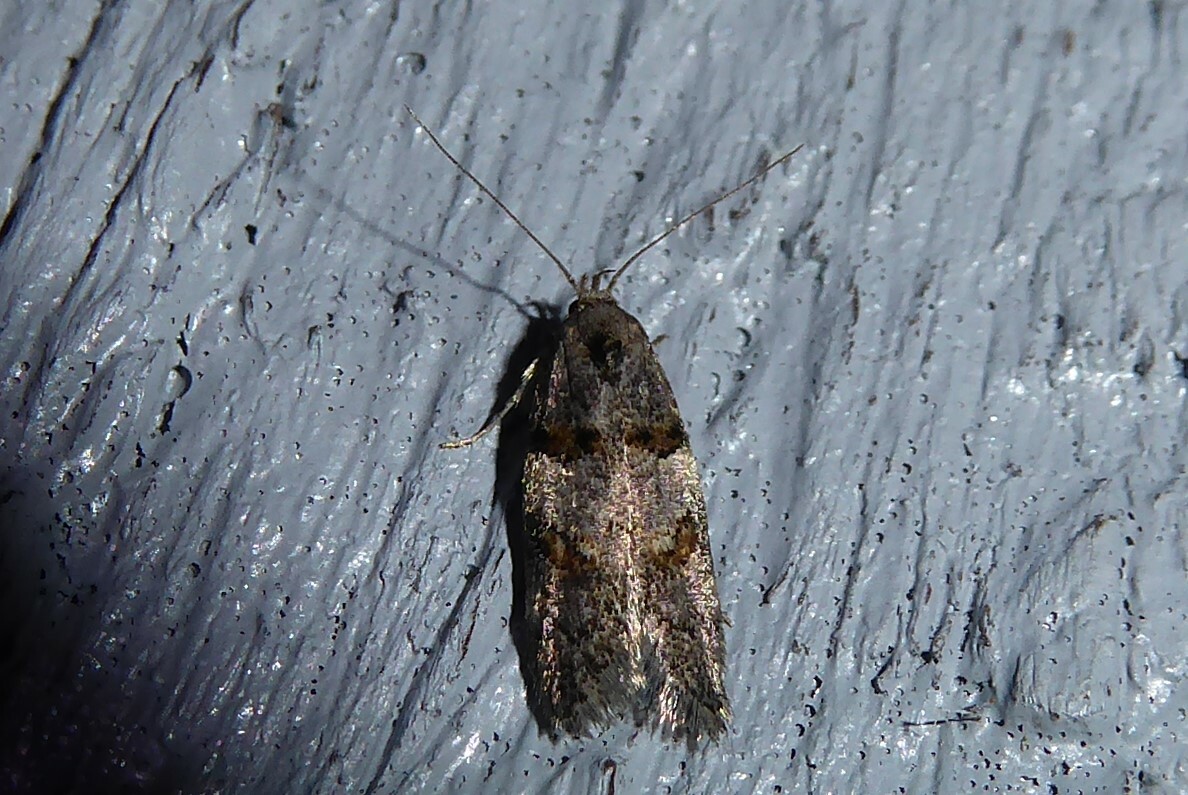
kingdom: Animalia
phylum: Arthropoda
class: Insecta
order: Lepidoptera
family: Oecophoridae
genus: Trachypepla
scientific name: Trachypepla contritella
